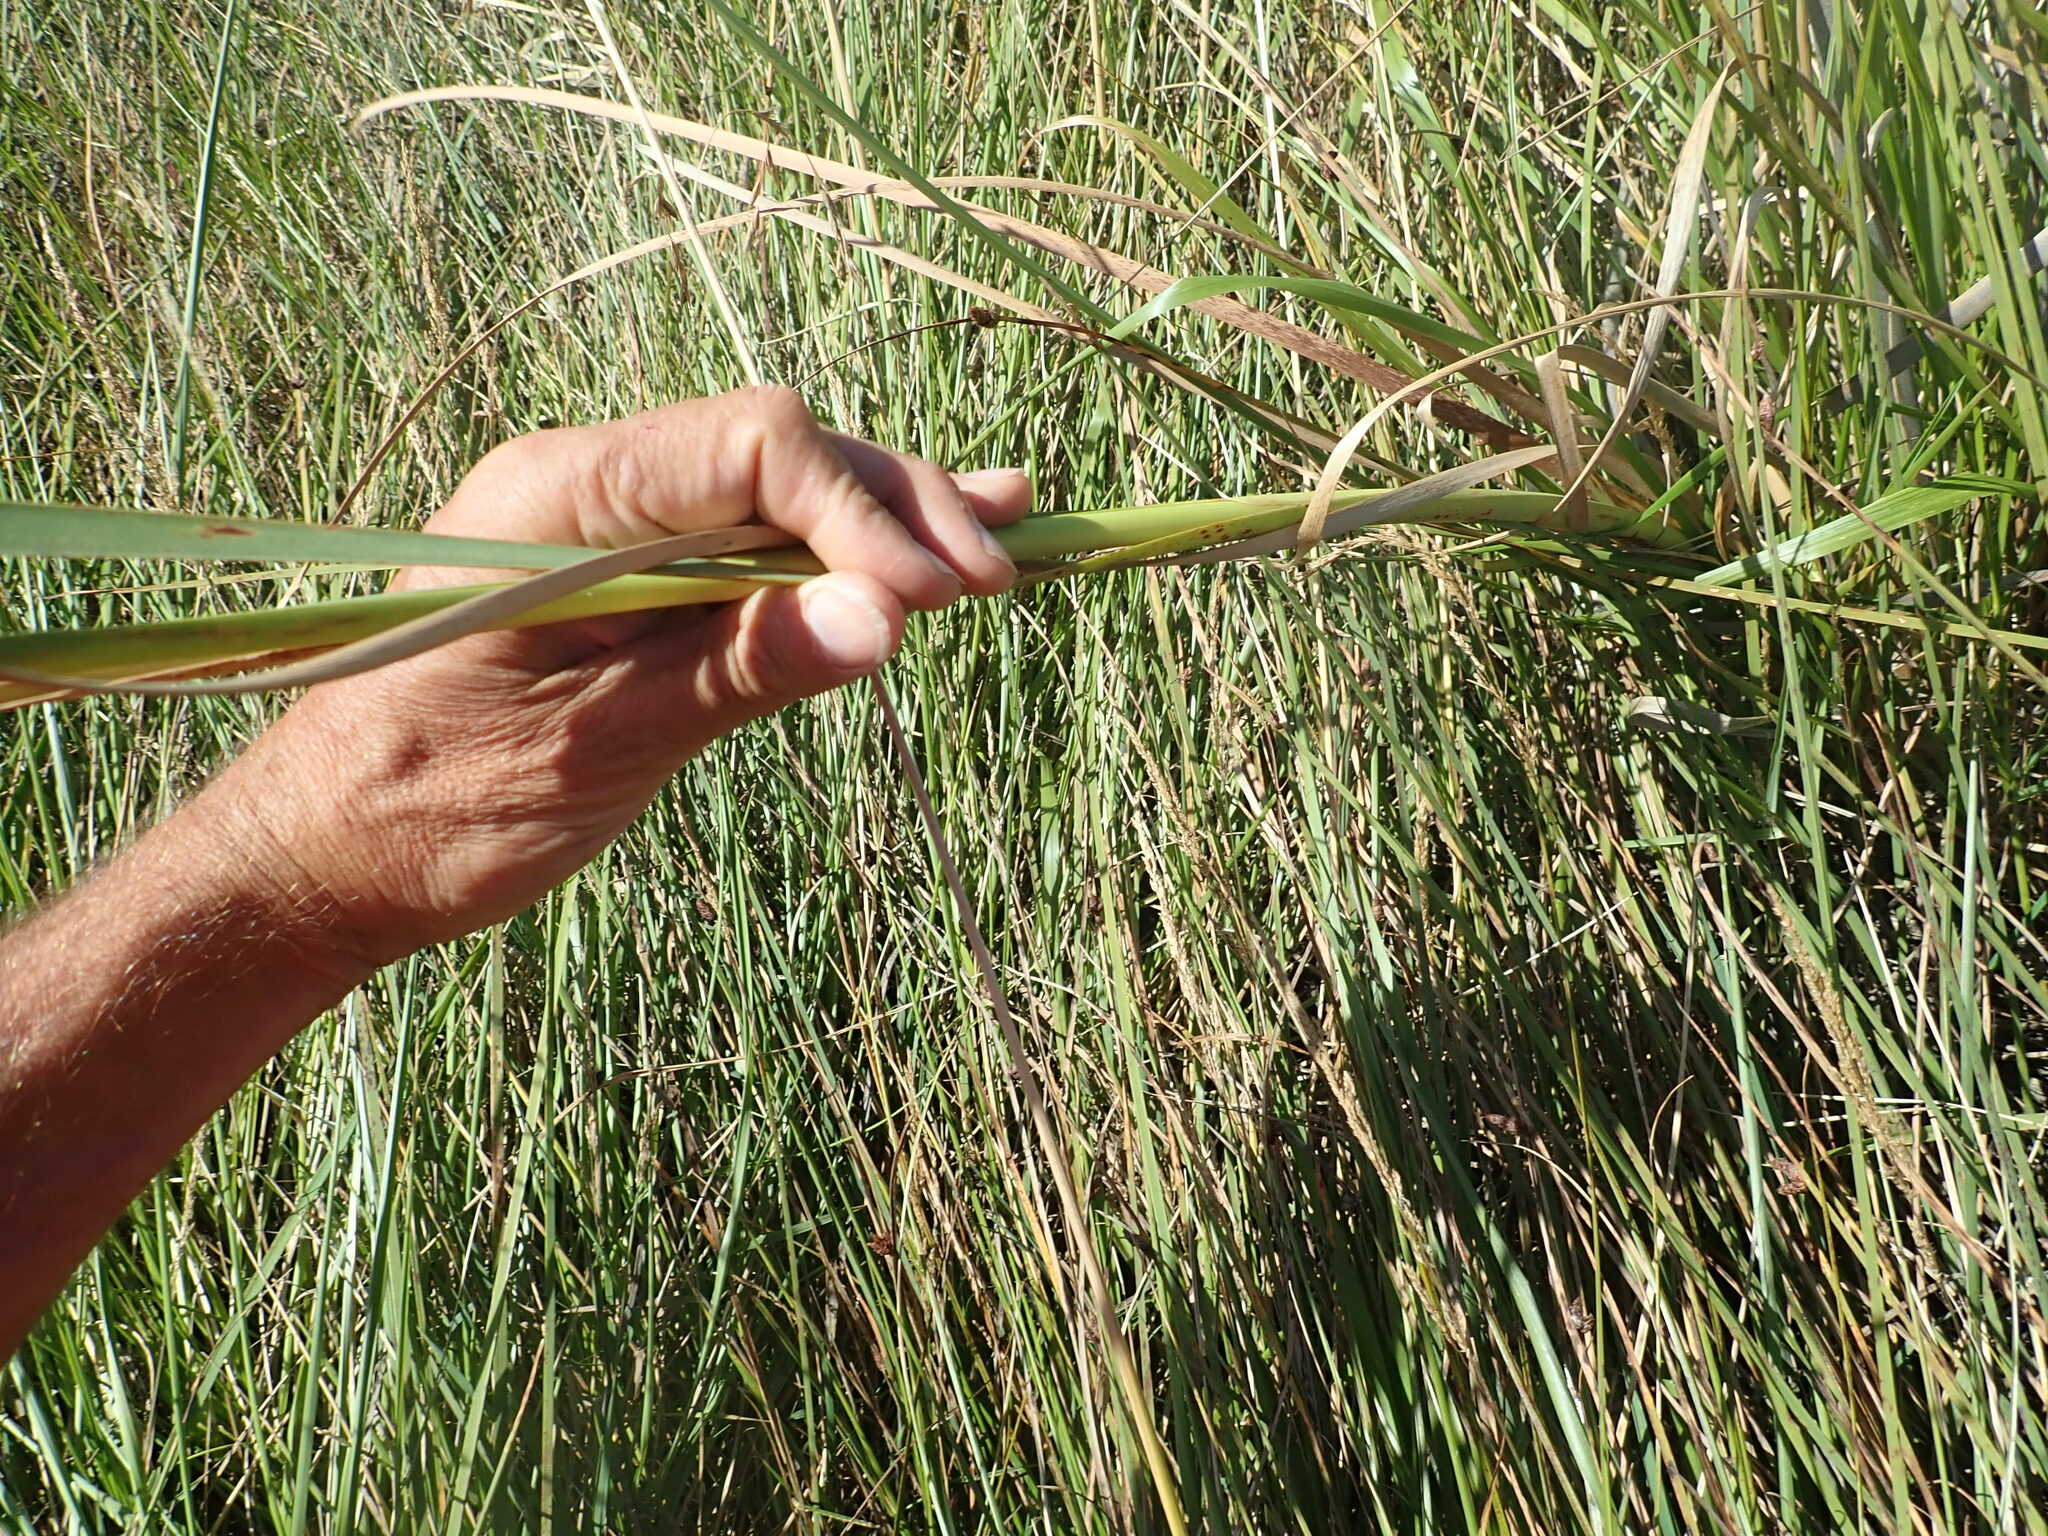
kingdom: Plantae
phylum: Tracheophyta
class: Liliopsida
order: Poales
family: Typhaceae
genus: Typha
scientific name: Typha orientalis
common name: Bullrush
